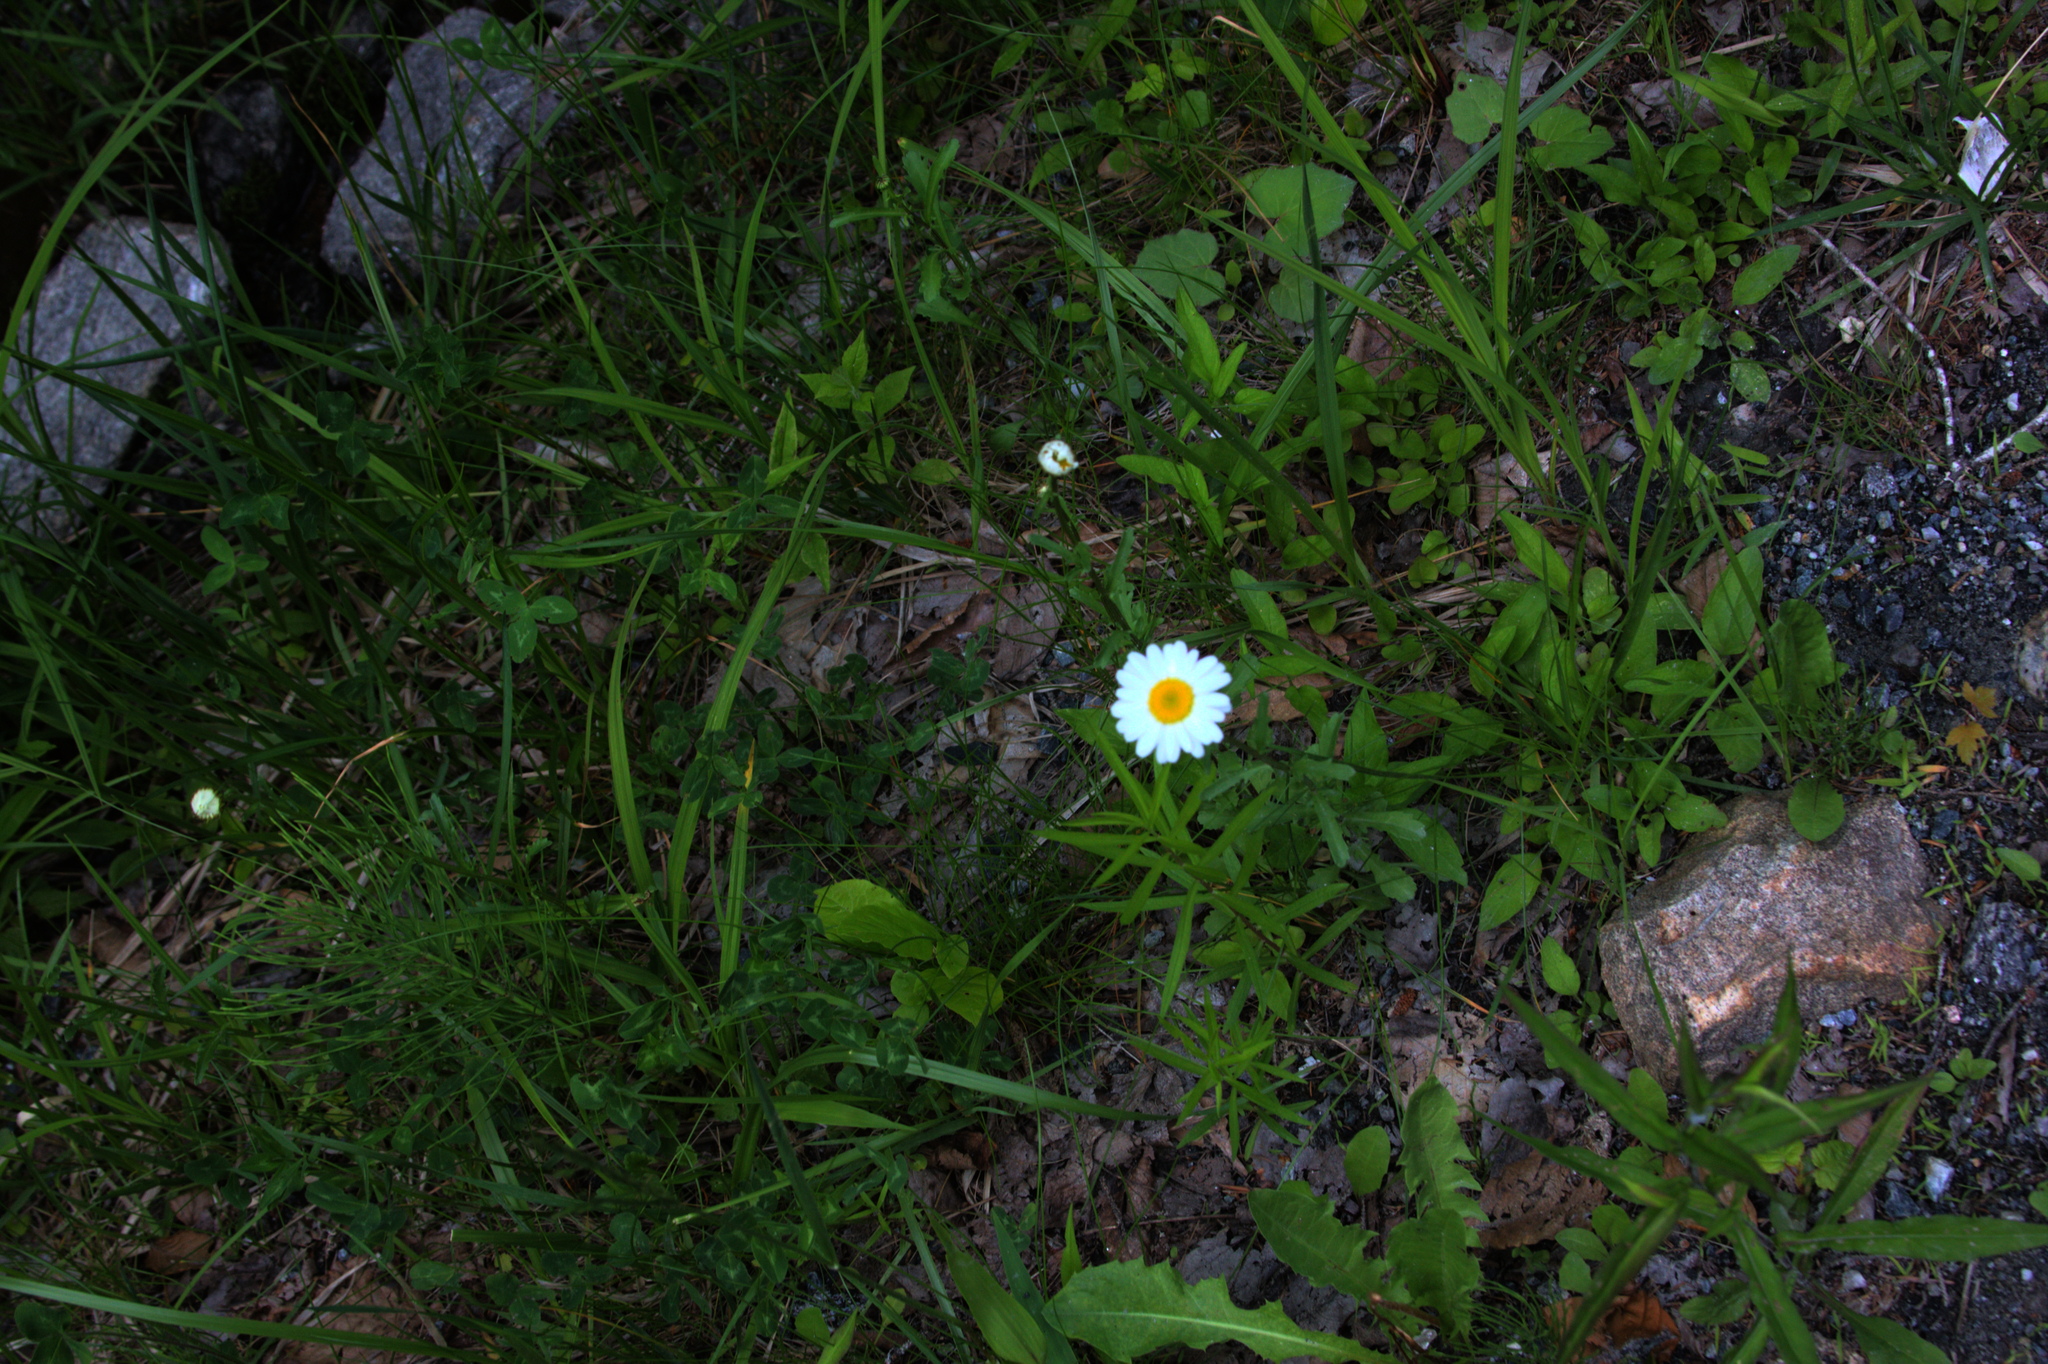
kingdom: Plantae
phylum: Tracheophyta
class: Magnoliopsida
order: Asterales
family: Asteraceae
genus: Leucanthemum
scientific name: Leucanthemum vulgare
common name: Oxeye daisy
